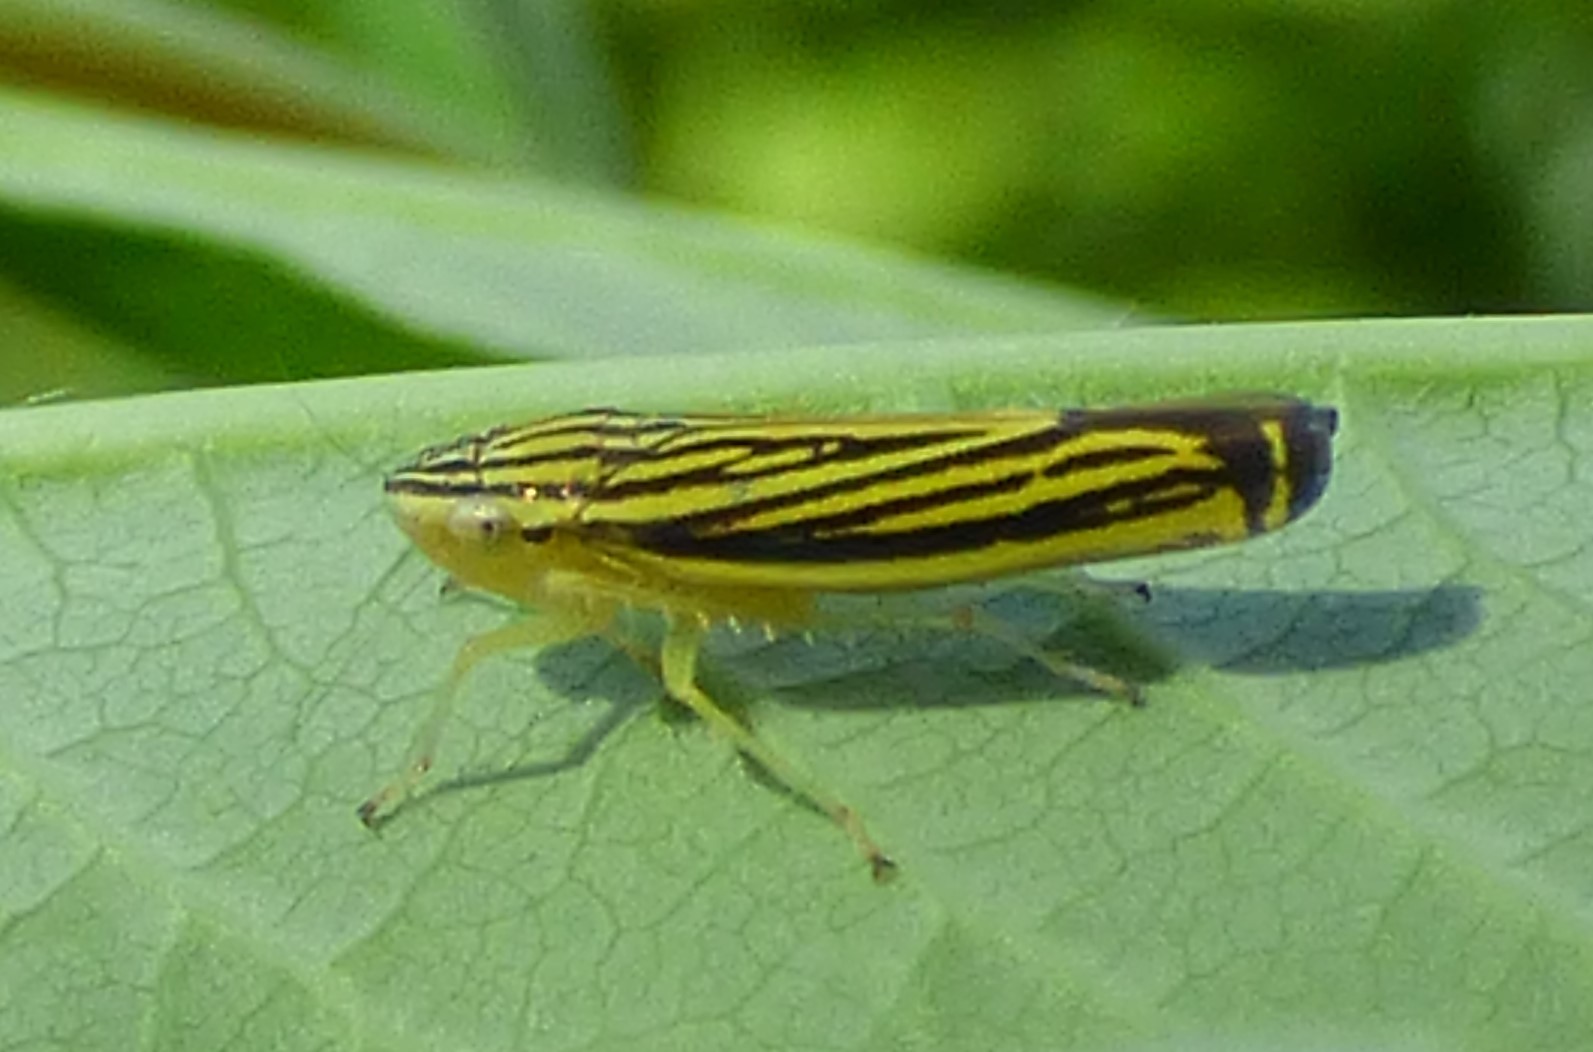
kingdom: Animalia
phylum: Arthropoda
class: Insecta
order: Hemiptera
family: Cicadellidae
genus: Sibovia
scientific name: Sibovia occatoria
